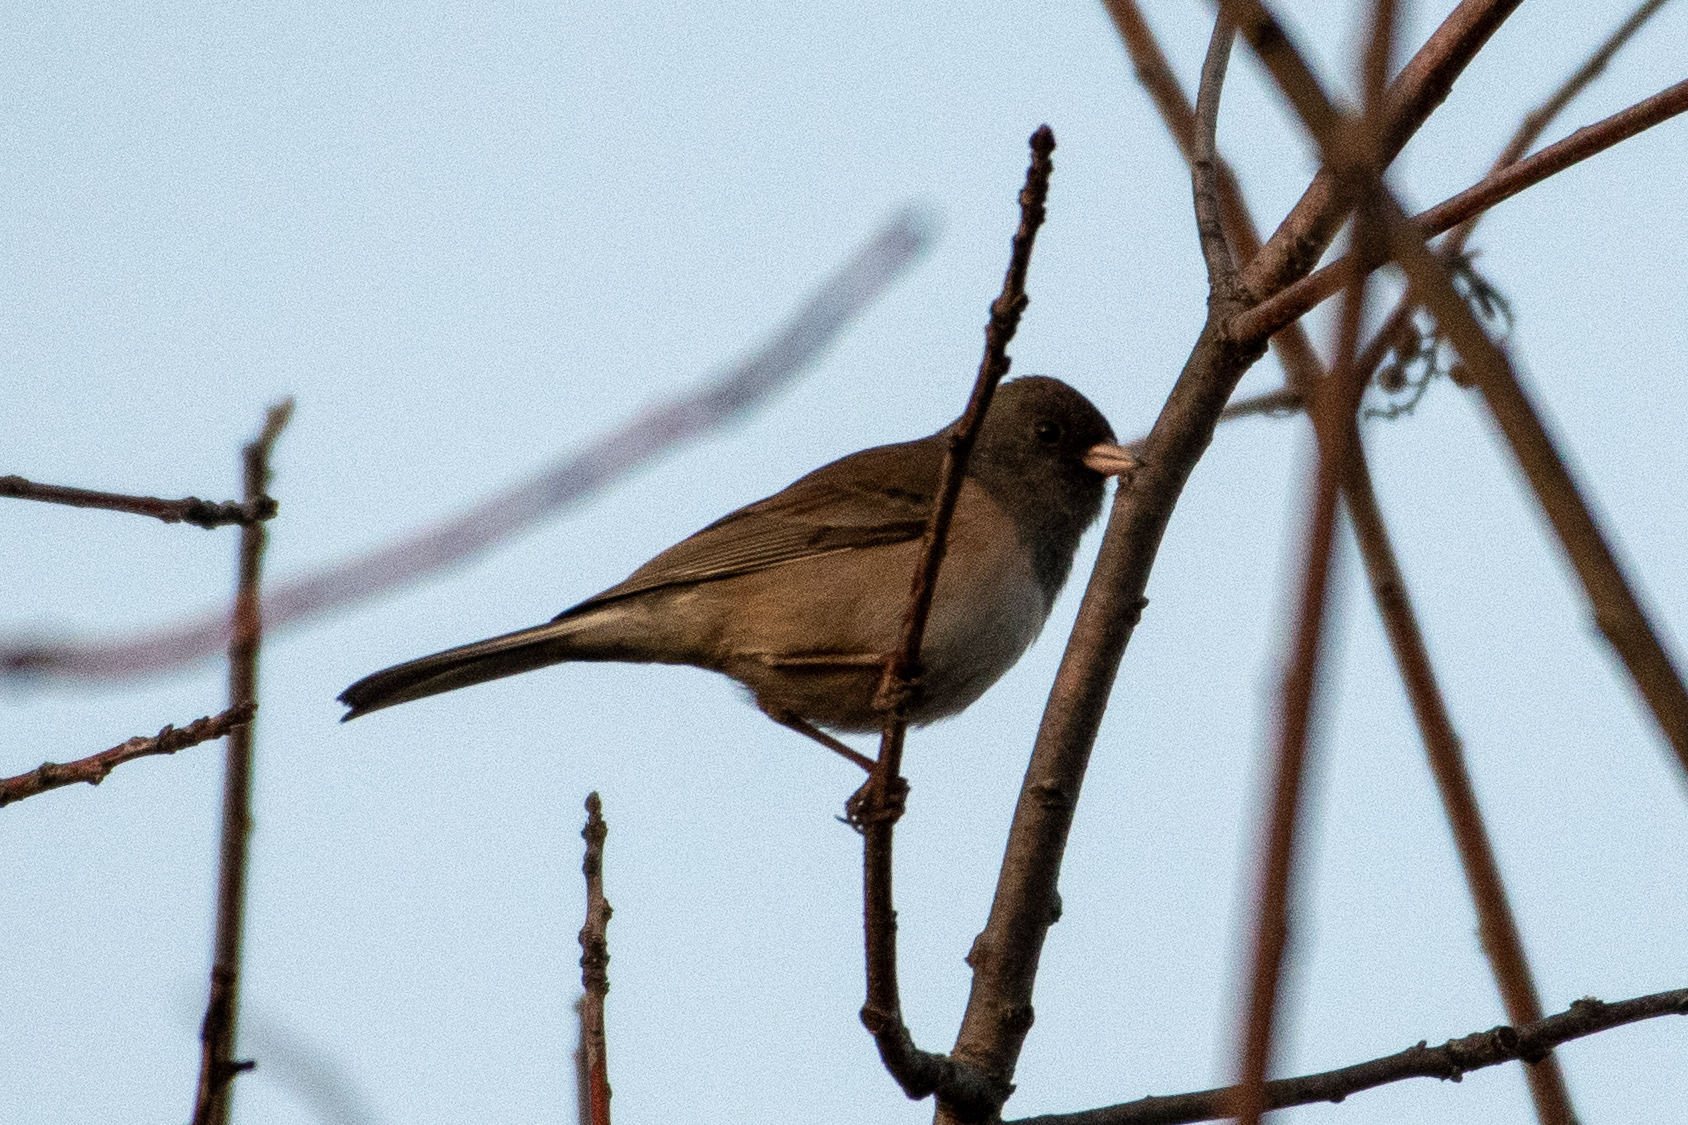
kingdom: Animalia
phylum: Chordata
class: Aves
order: Passeriformes
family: Passerellidae
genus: Junco
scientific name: Junco hyemalis
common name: Dark-eyed junco
